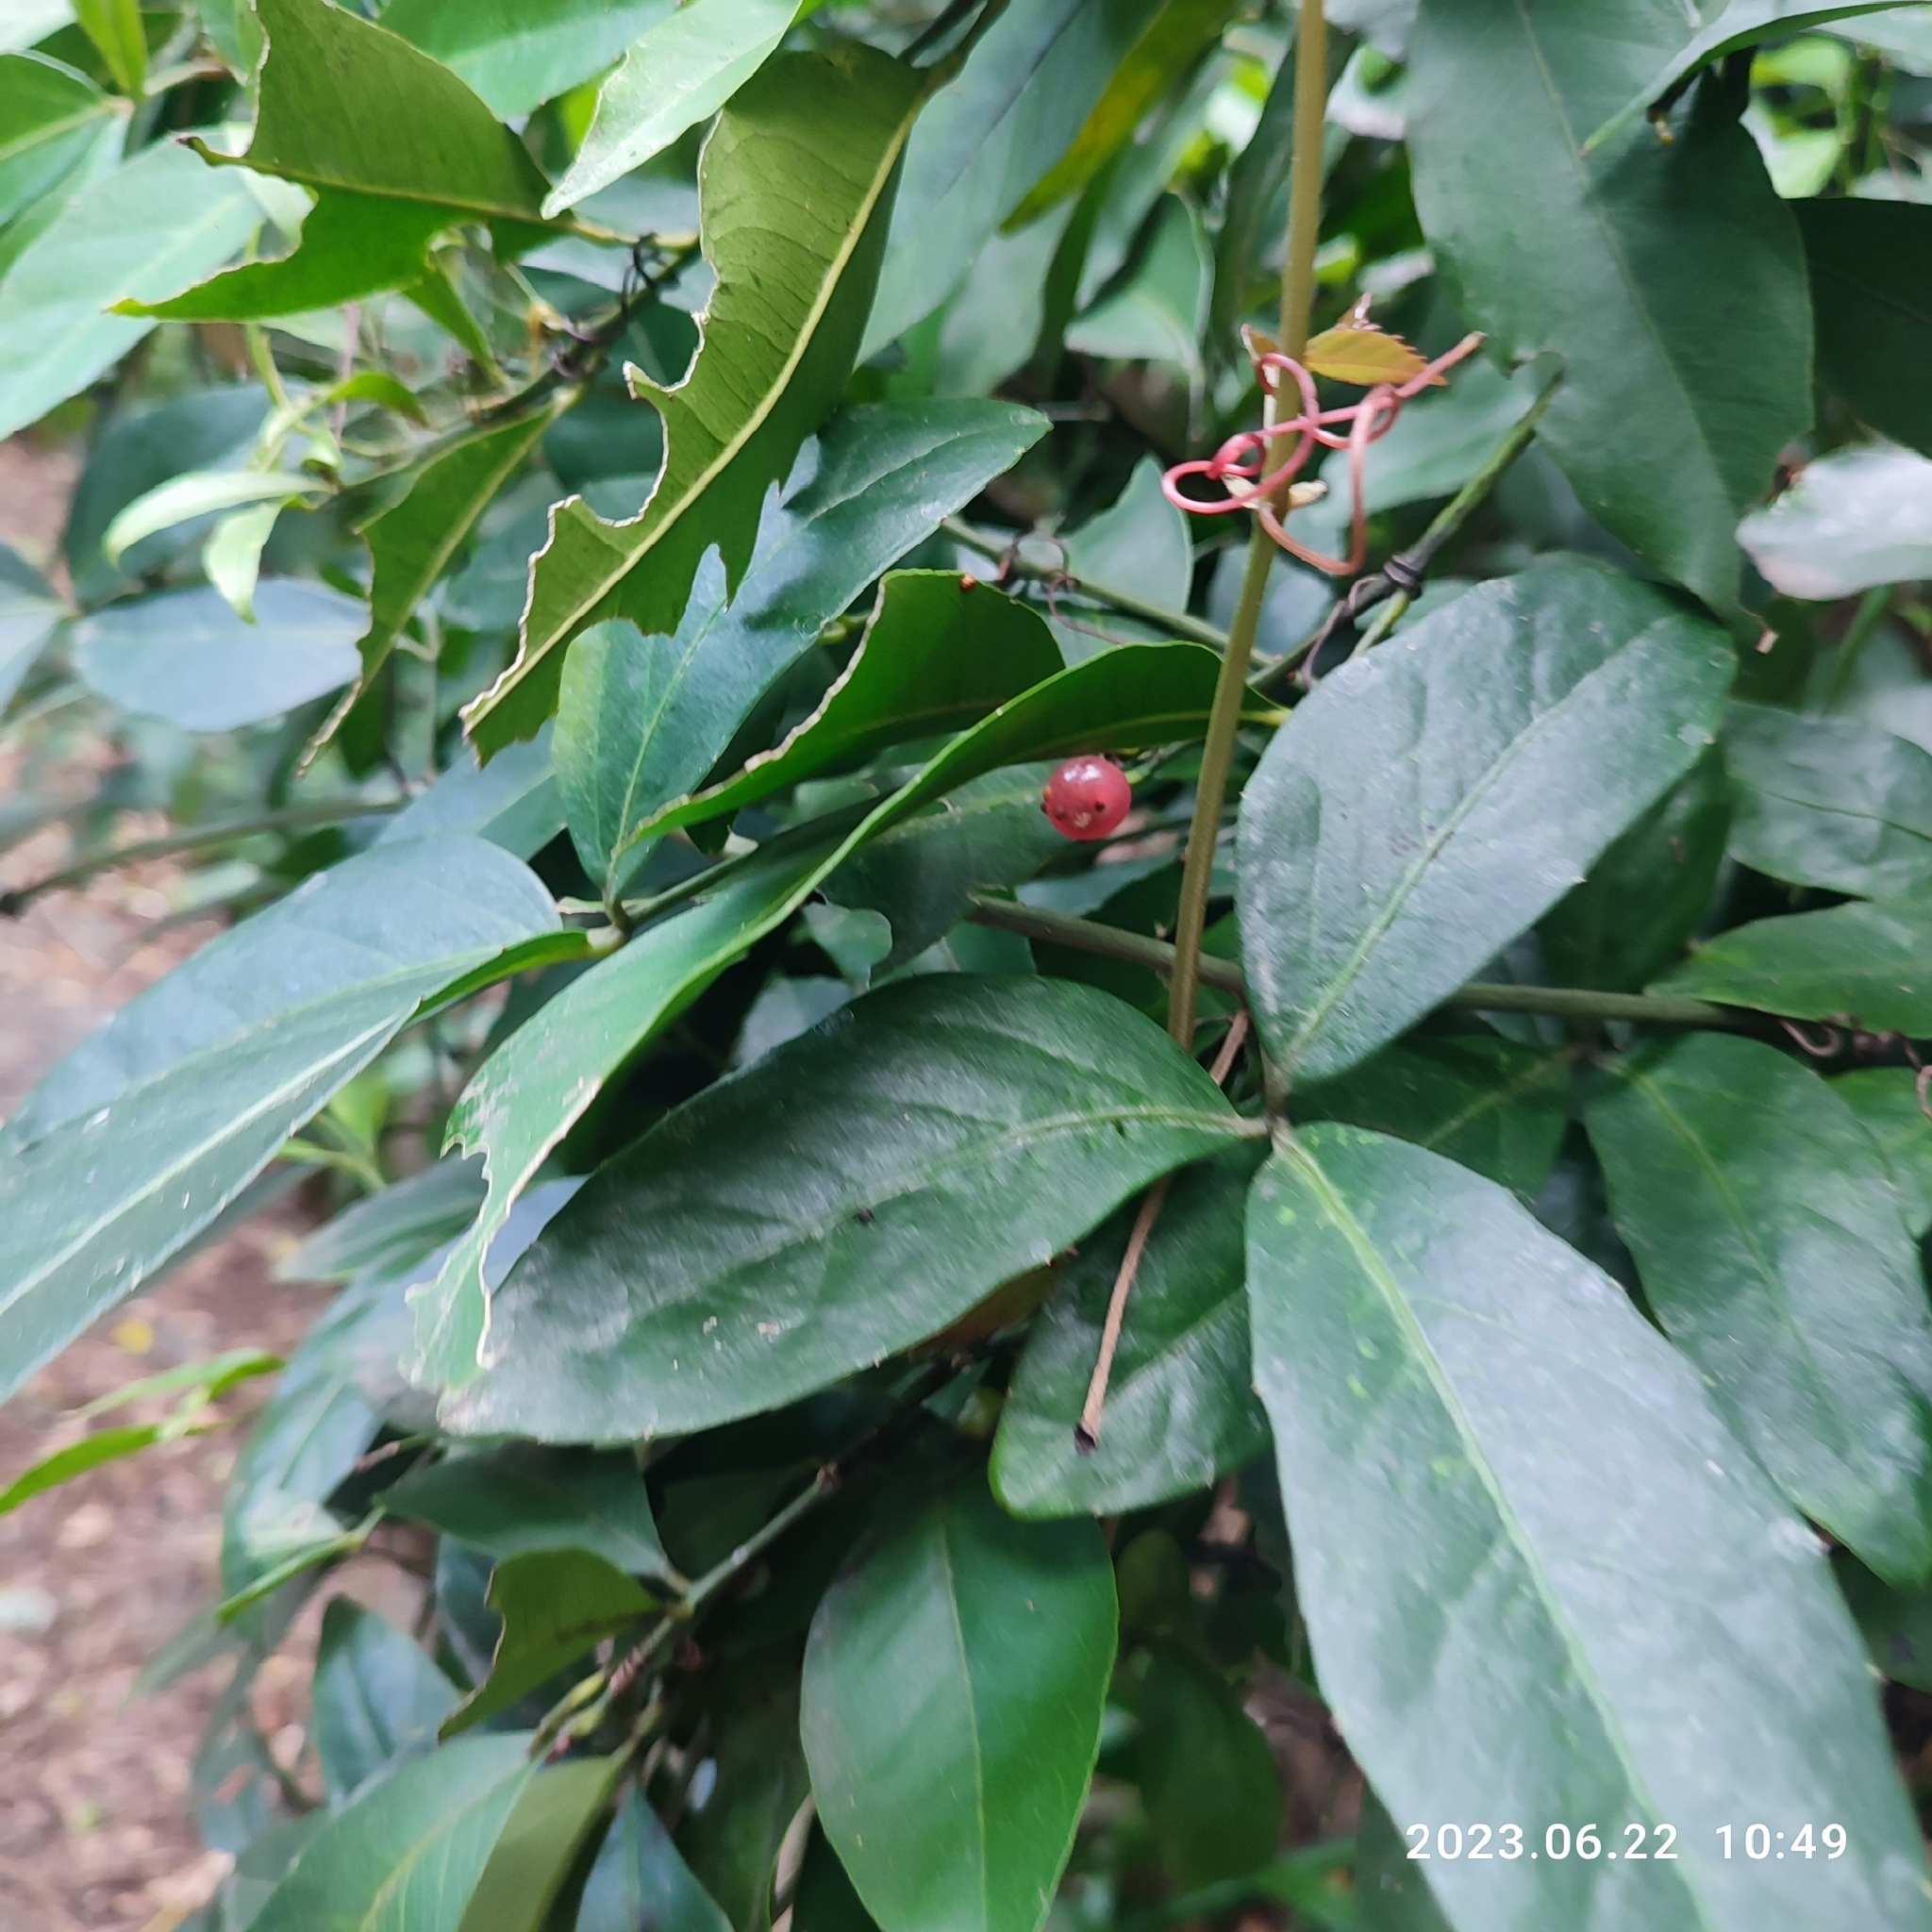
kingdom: Plantae
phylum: Tracheophyta
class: Magnoliopsida
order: Vitales
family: Vitaceae
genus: Tetrastigma
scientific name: Tetrastigma formosanum
